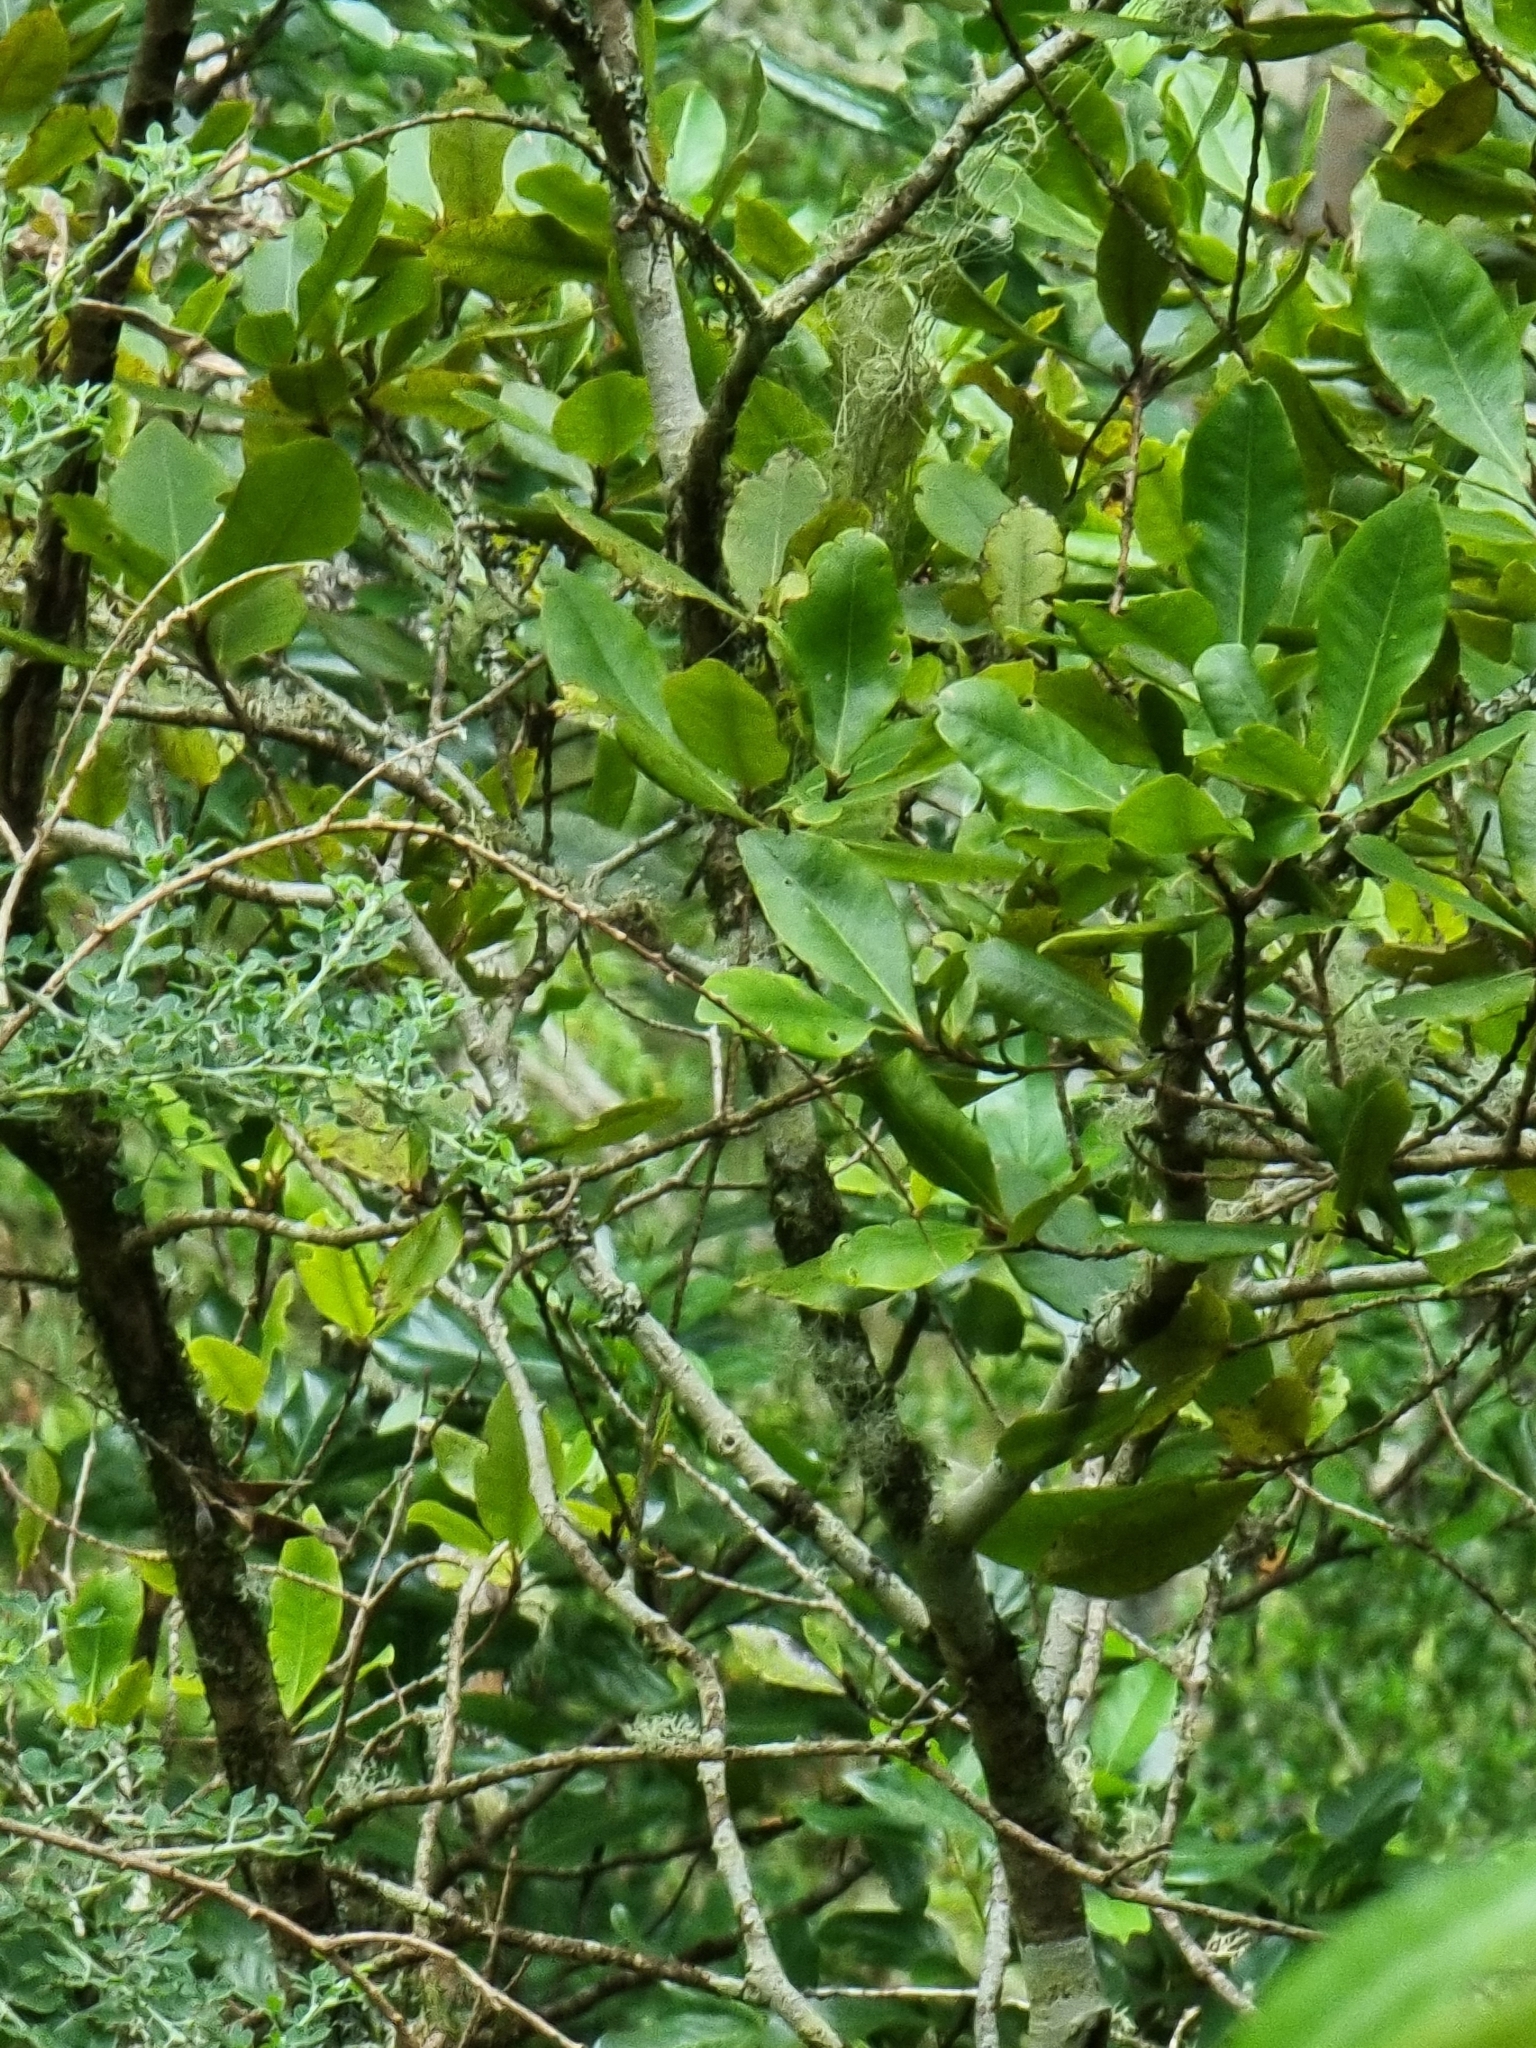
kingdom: Plantae
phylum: Tracheophyta
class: Magnoliopsida
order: Ericales
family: Primulaceae
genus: Heberdenia
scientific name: Heberdenia excelsa
